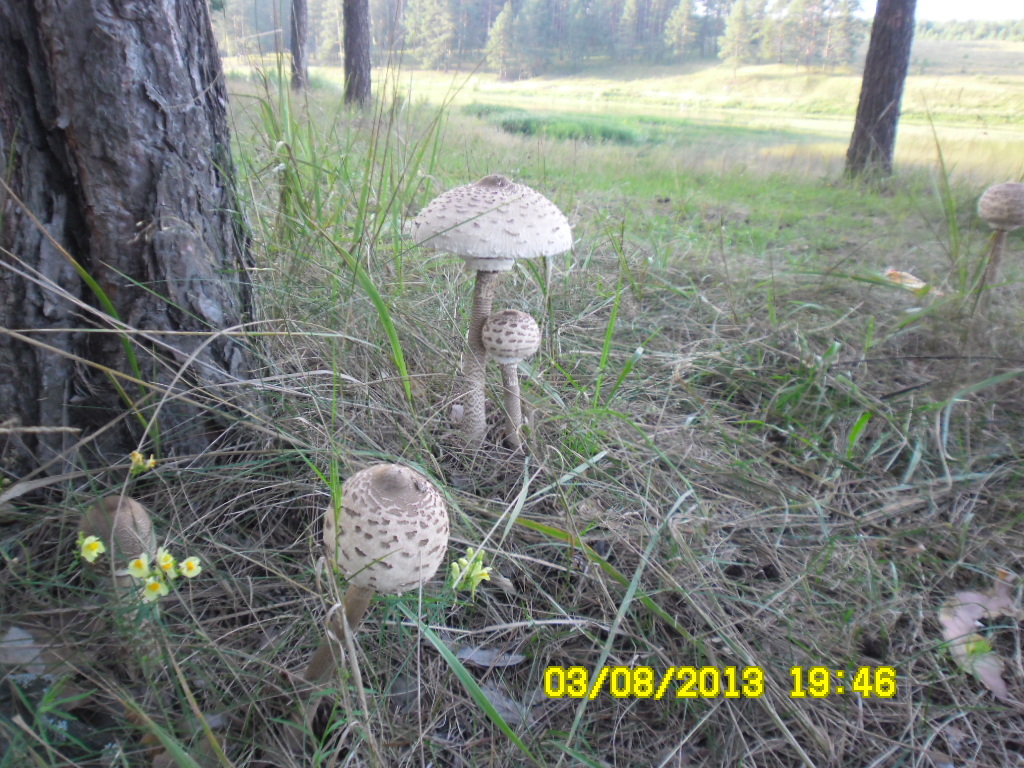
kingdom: Fungi
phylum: Basidiomycota
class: Agaricomycetes
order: Agaricales
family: Agaricaceae
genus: Macrolepiota
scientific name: Macrolepiota procera
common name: Parasol
